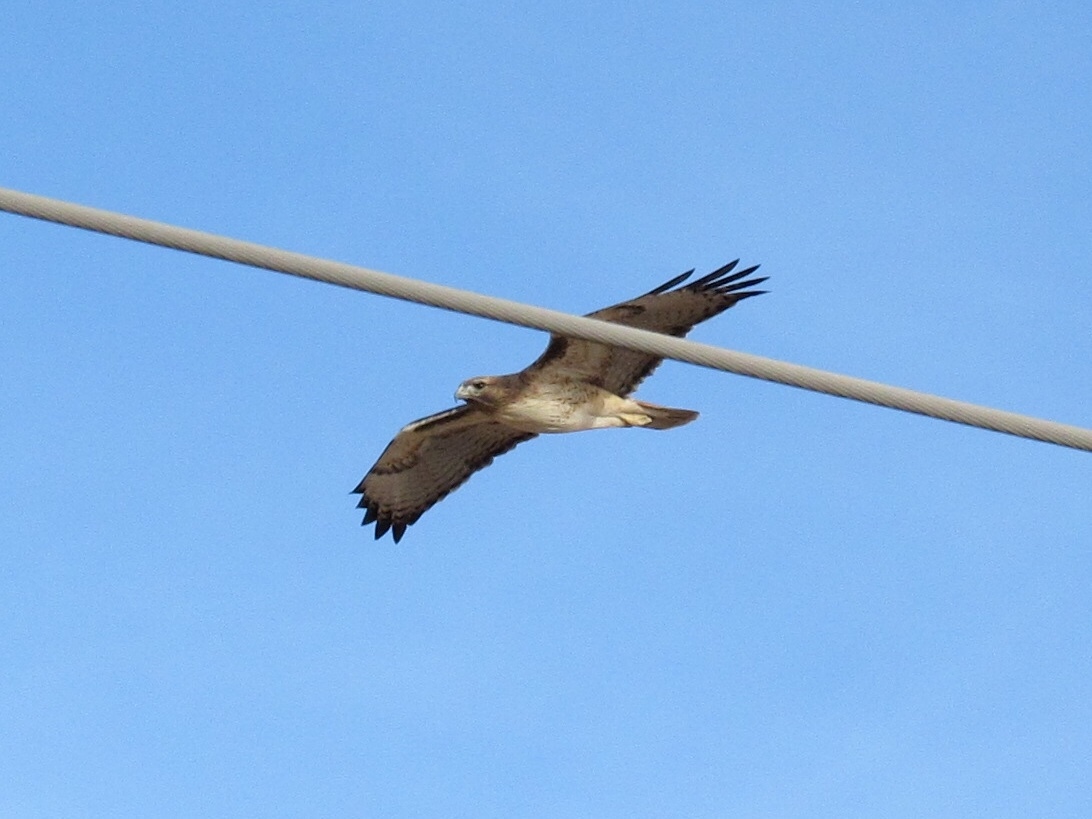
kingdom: Animalia
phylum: Chordata
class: Aves
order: Accipitriformes
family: Accipitridae
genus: Buteo
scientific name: Buteo jamaicensis
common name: Red-tailed hawk
